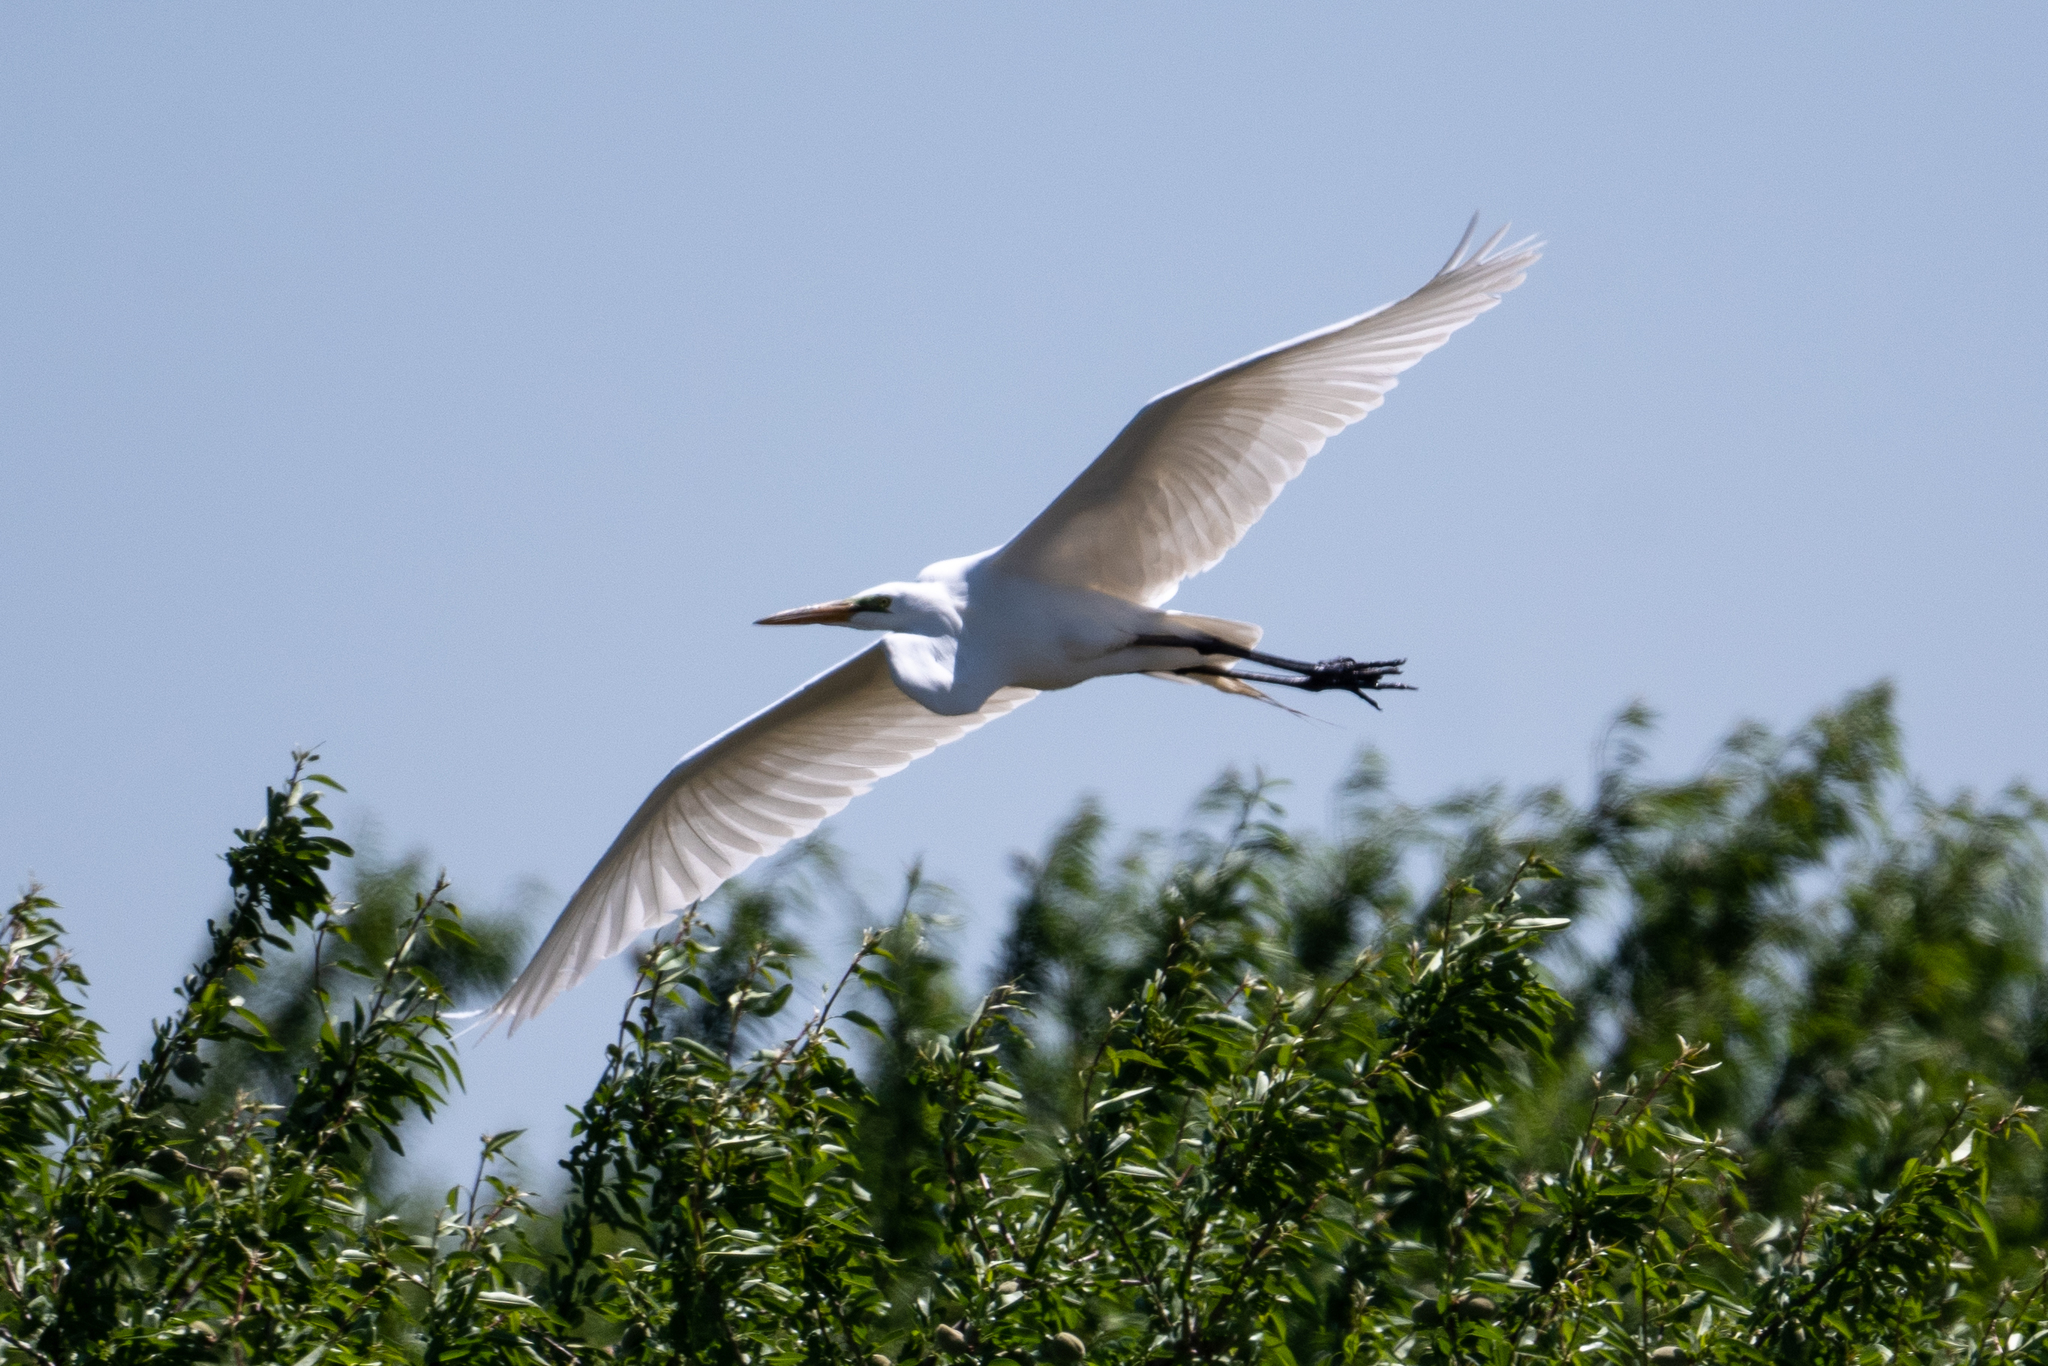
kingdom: Animalia
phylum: Chordata
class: Aves
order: Pelecaniformes
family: Ardeidae
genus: Ardea
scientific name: Ardea alba
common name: Great egret
